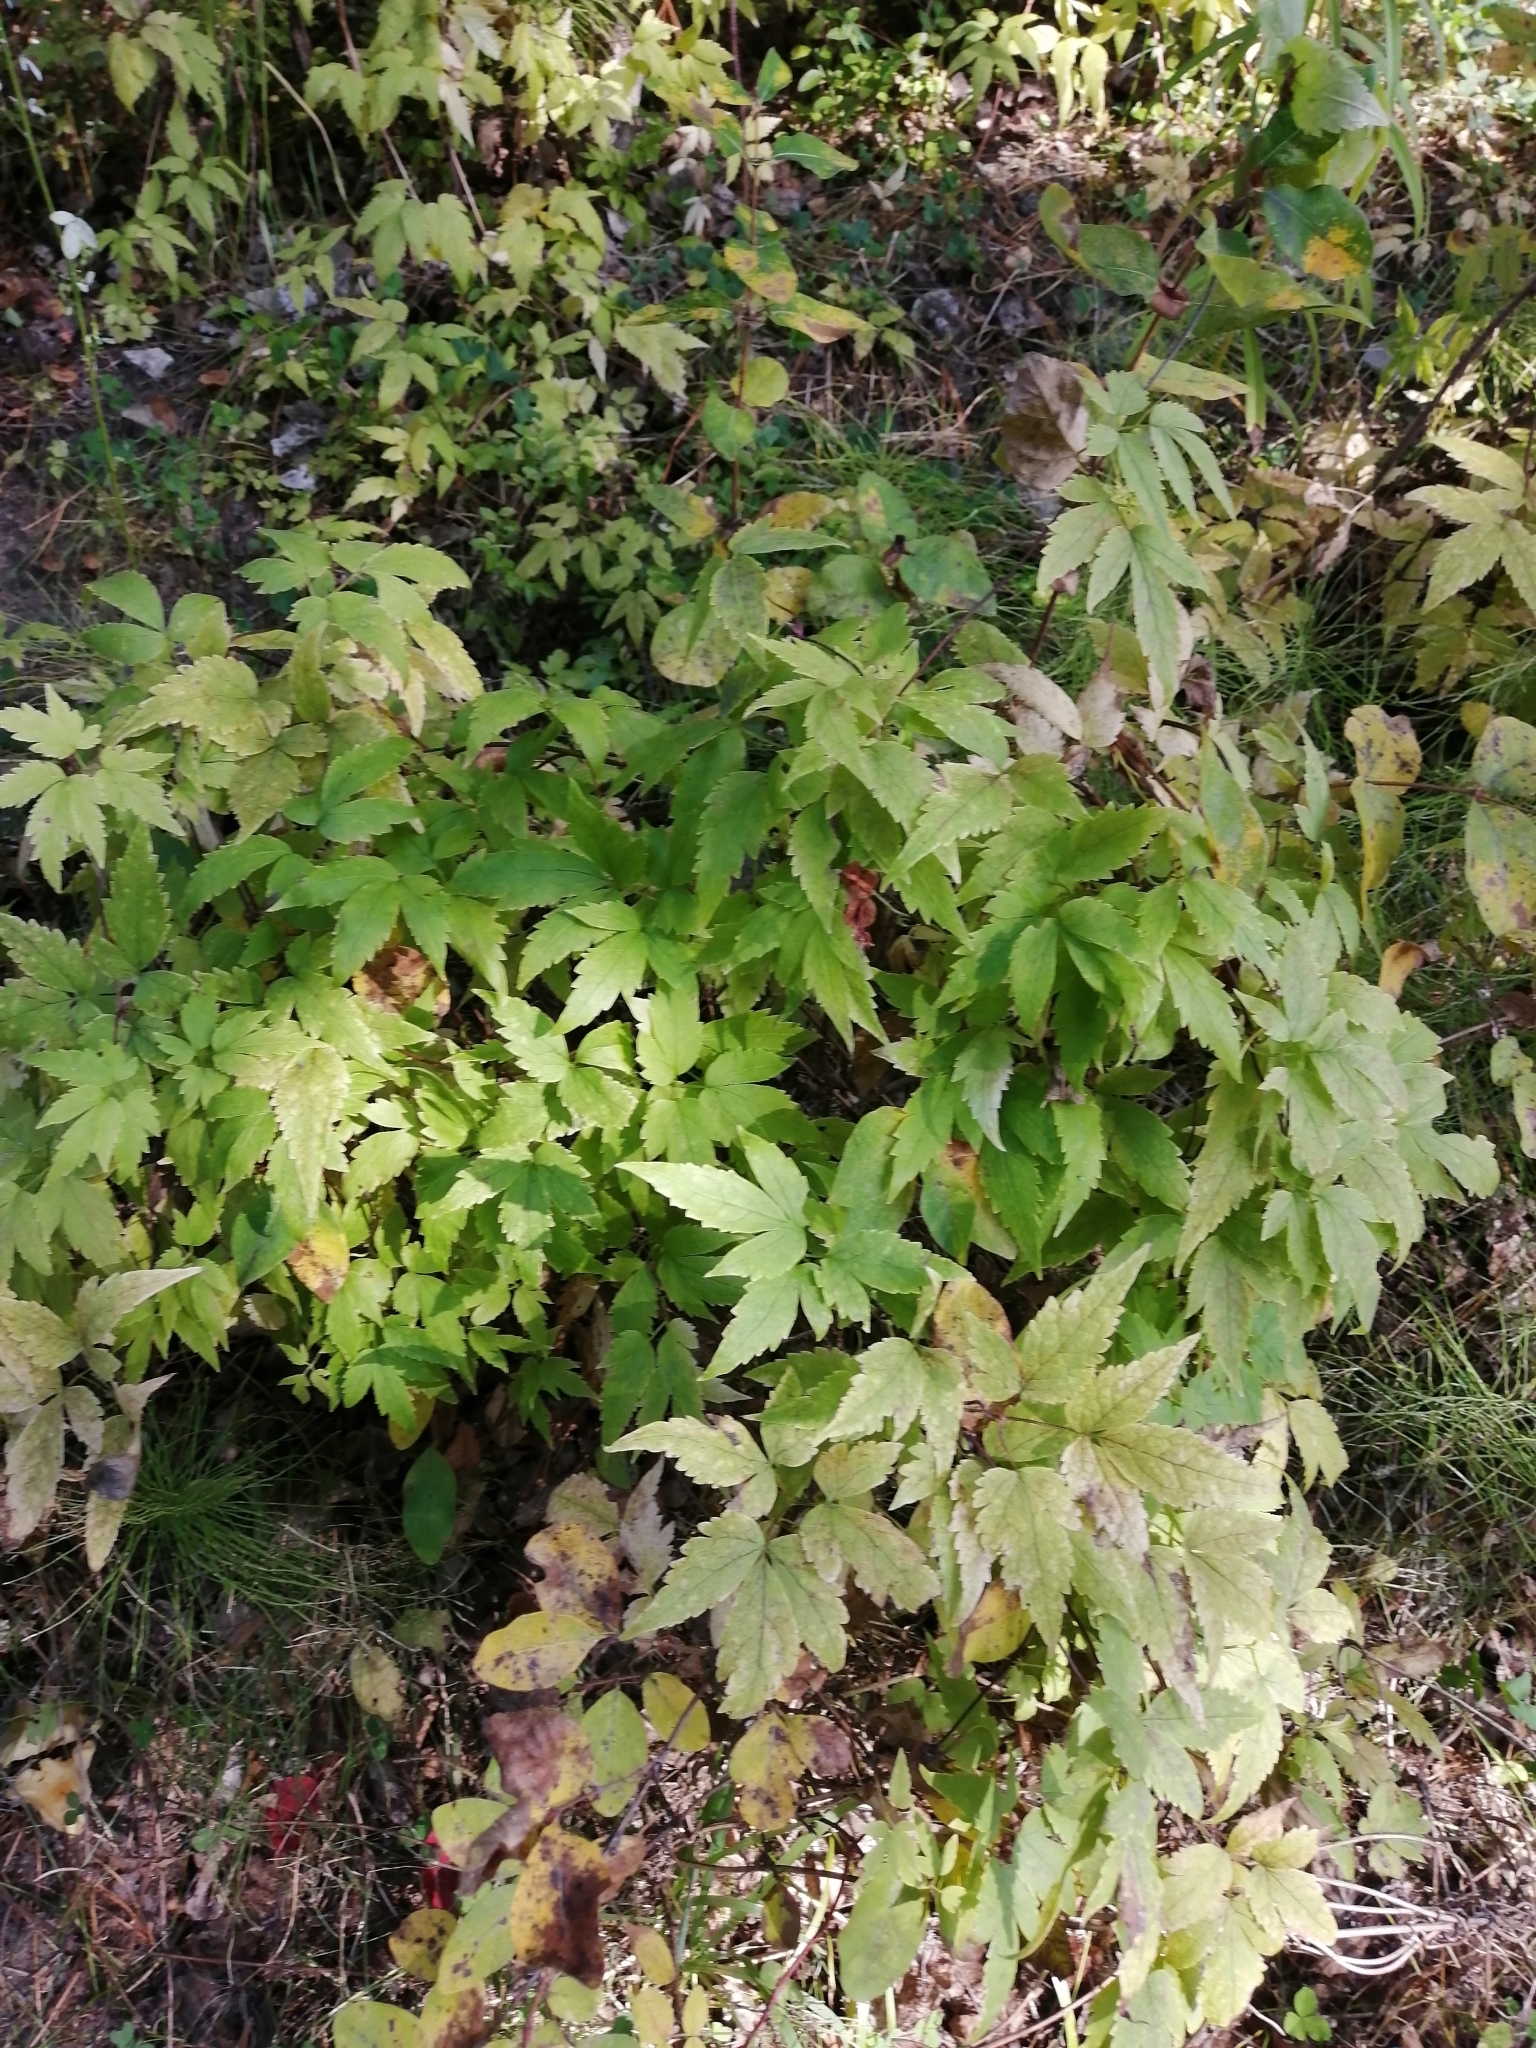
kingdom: Plantae
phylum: Tracheophyta
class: Magnoliopsida
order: Ranunculales
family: Ranunculaceae
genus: Clematis
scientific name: Clematis sibirica
